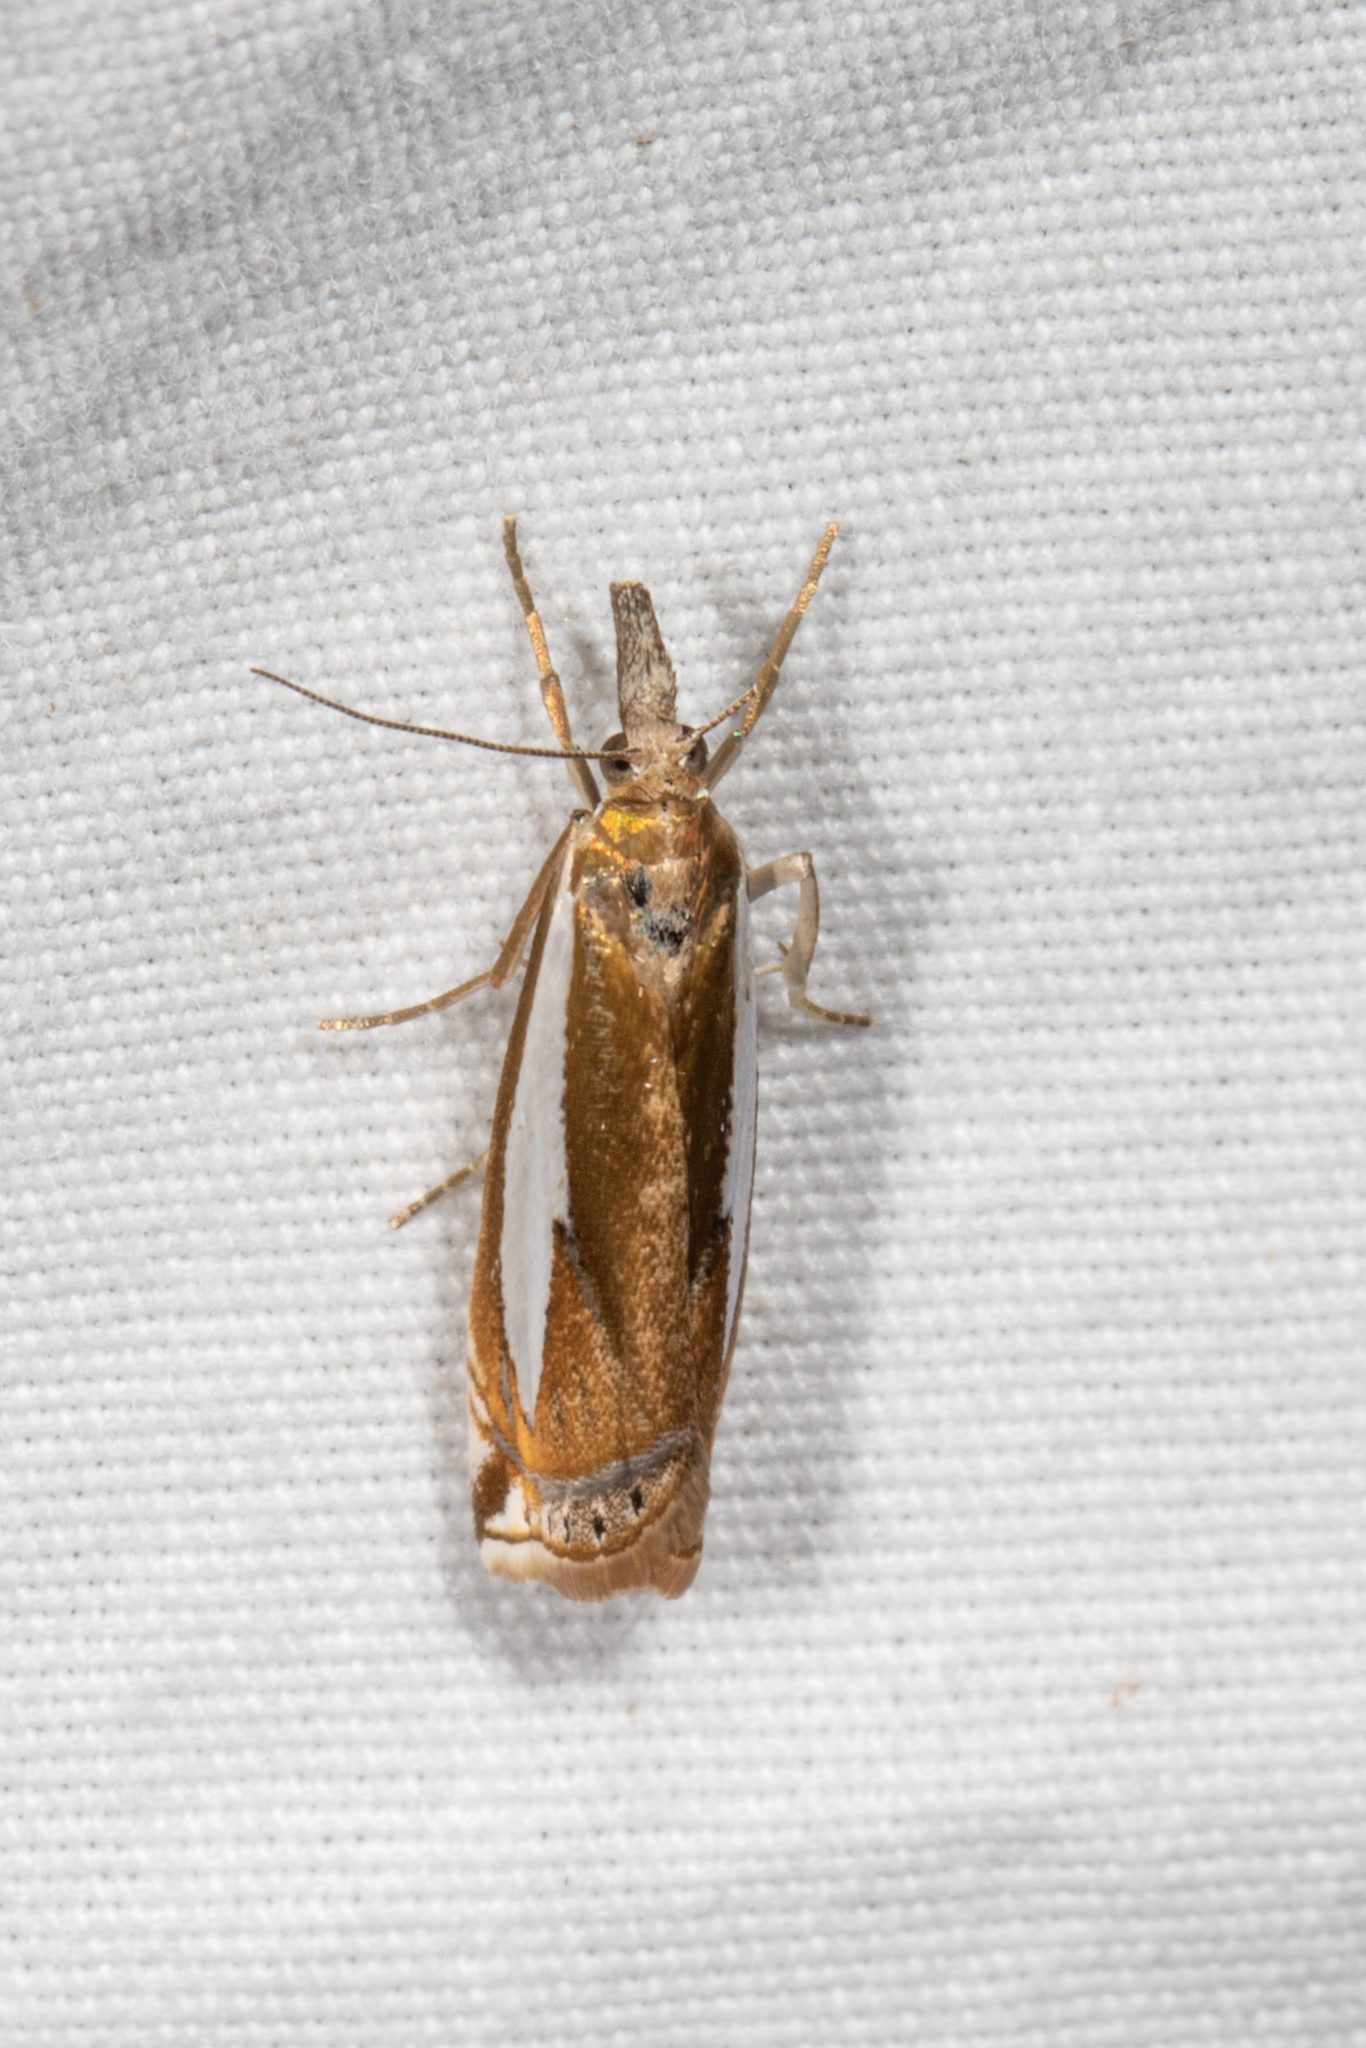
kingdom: Animalia
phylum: Arthropoda
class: Insecta
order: Lepidoptera
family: Crambidae
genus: Crambus
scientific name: Crambus praefectellus
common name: Common grass-veneer
